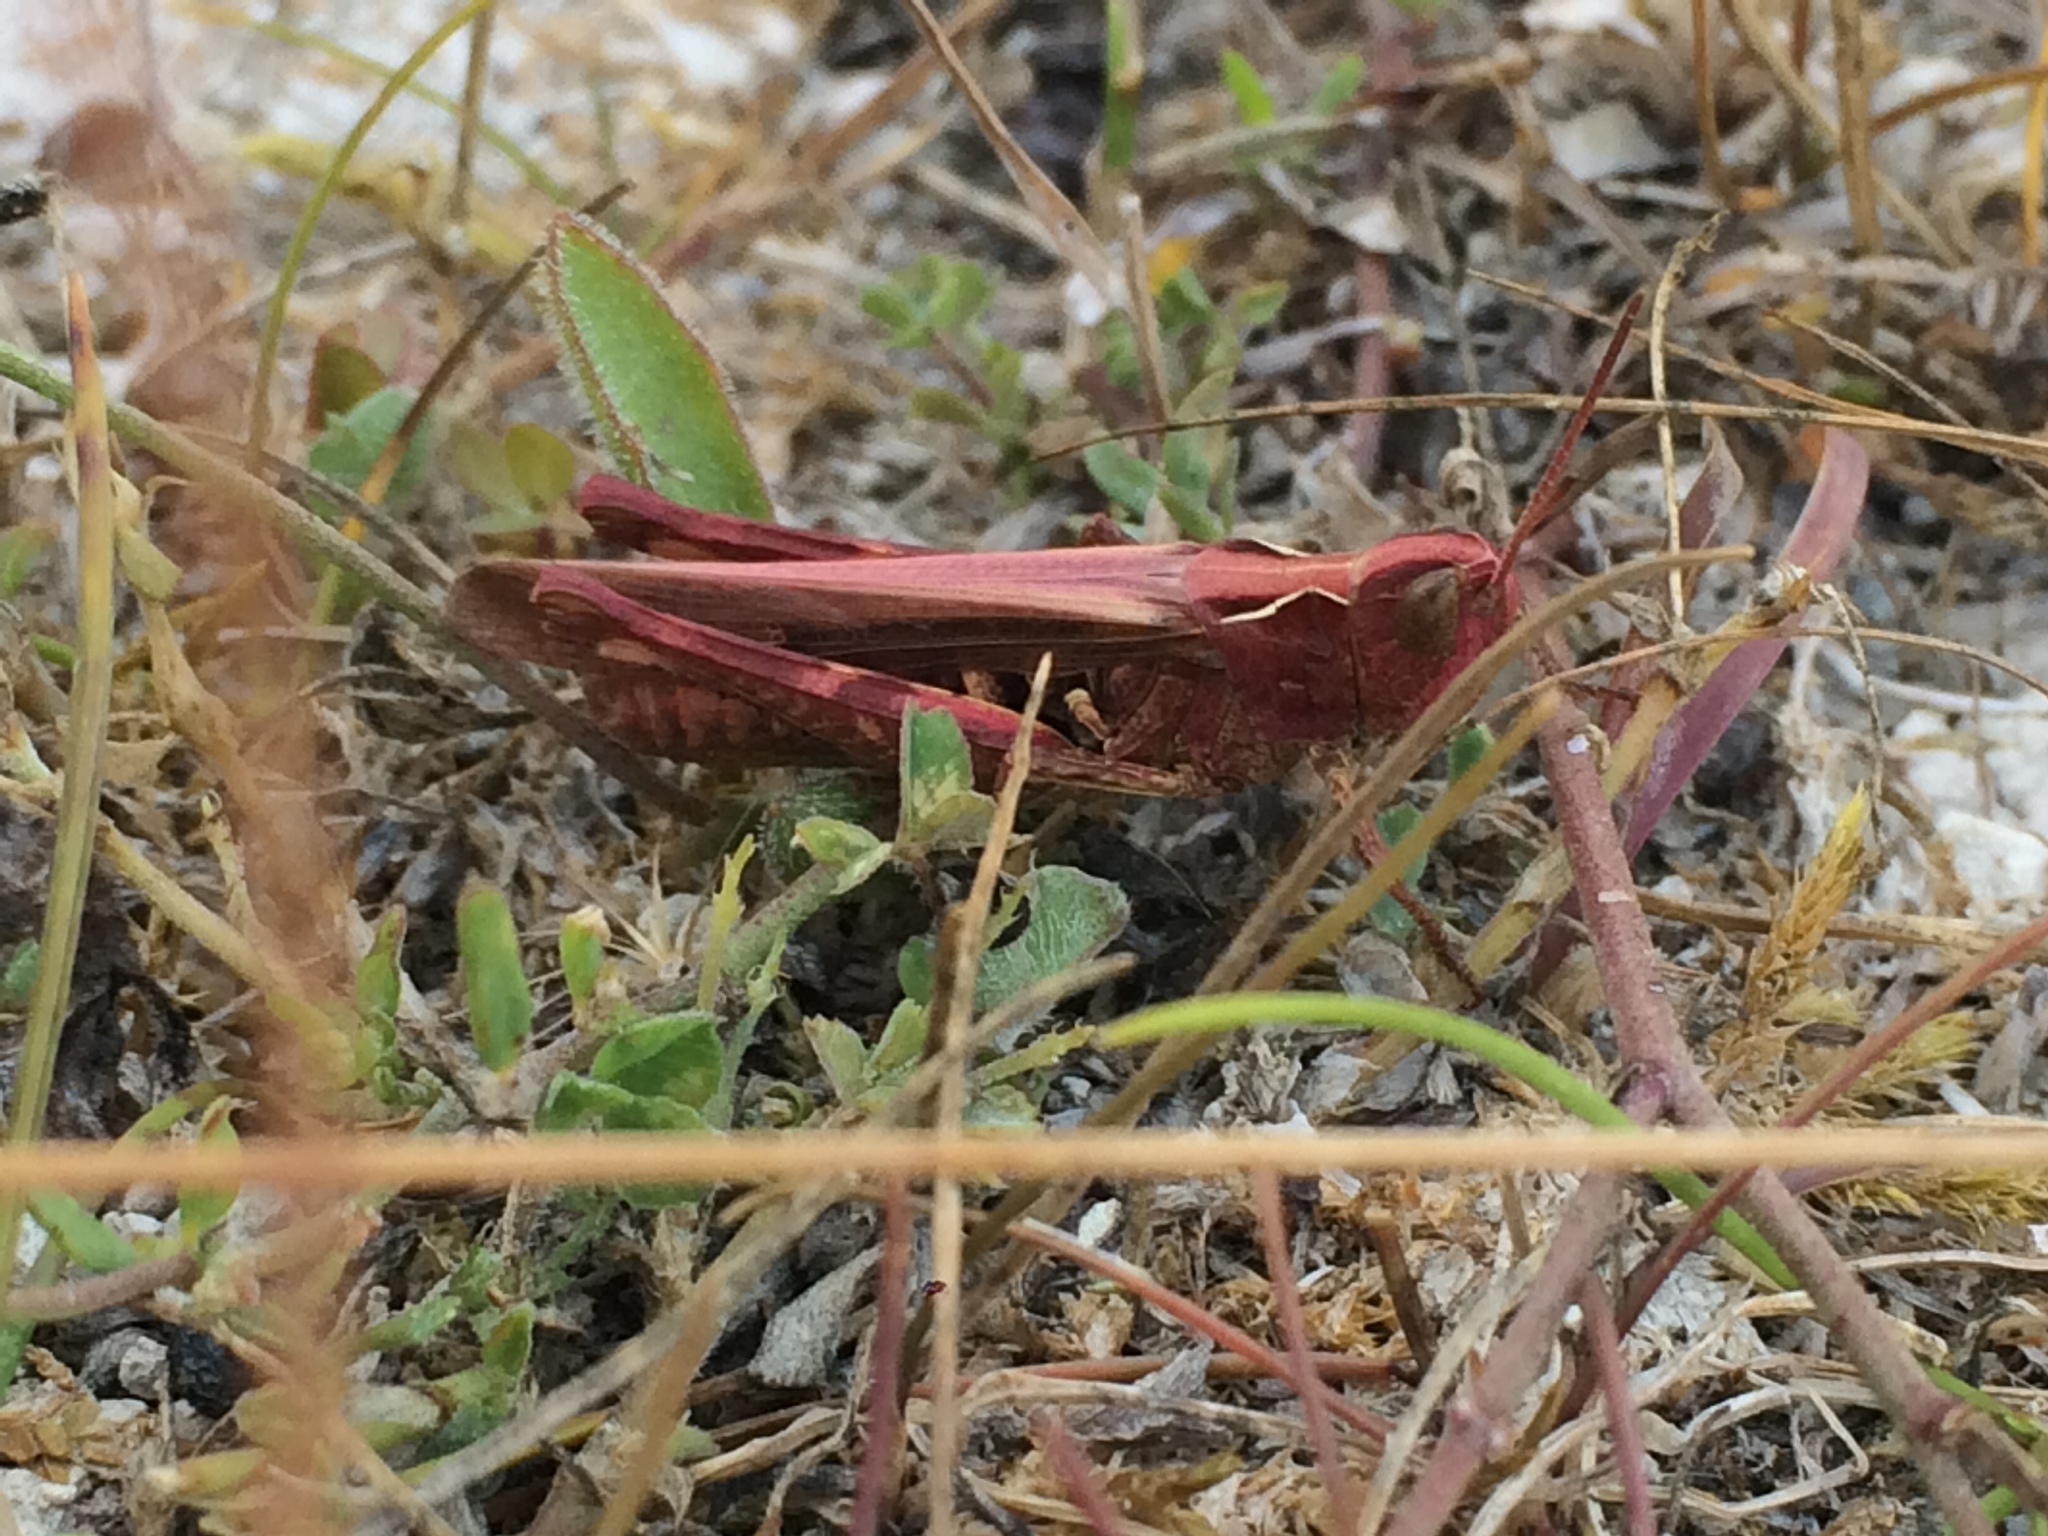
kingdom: Animalia
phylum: Arthropoda
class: Insecta
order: Orthoptera
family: Acrididae
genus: Chorthippus
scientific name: Chorthippus brunneus
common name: Field grasshopper
